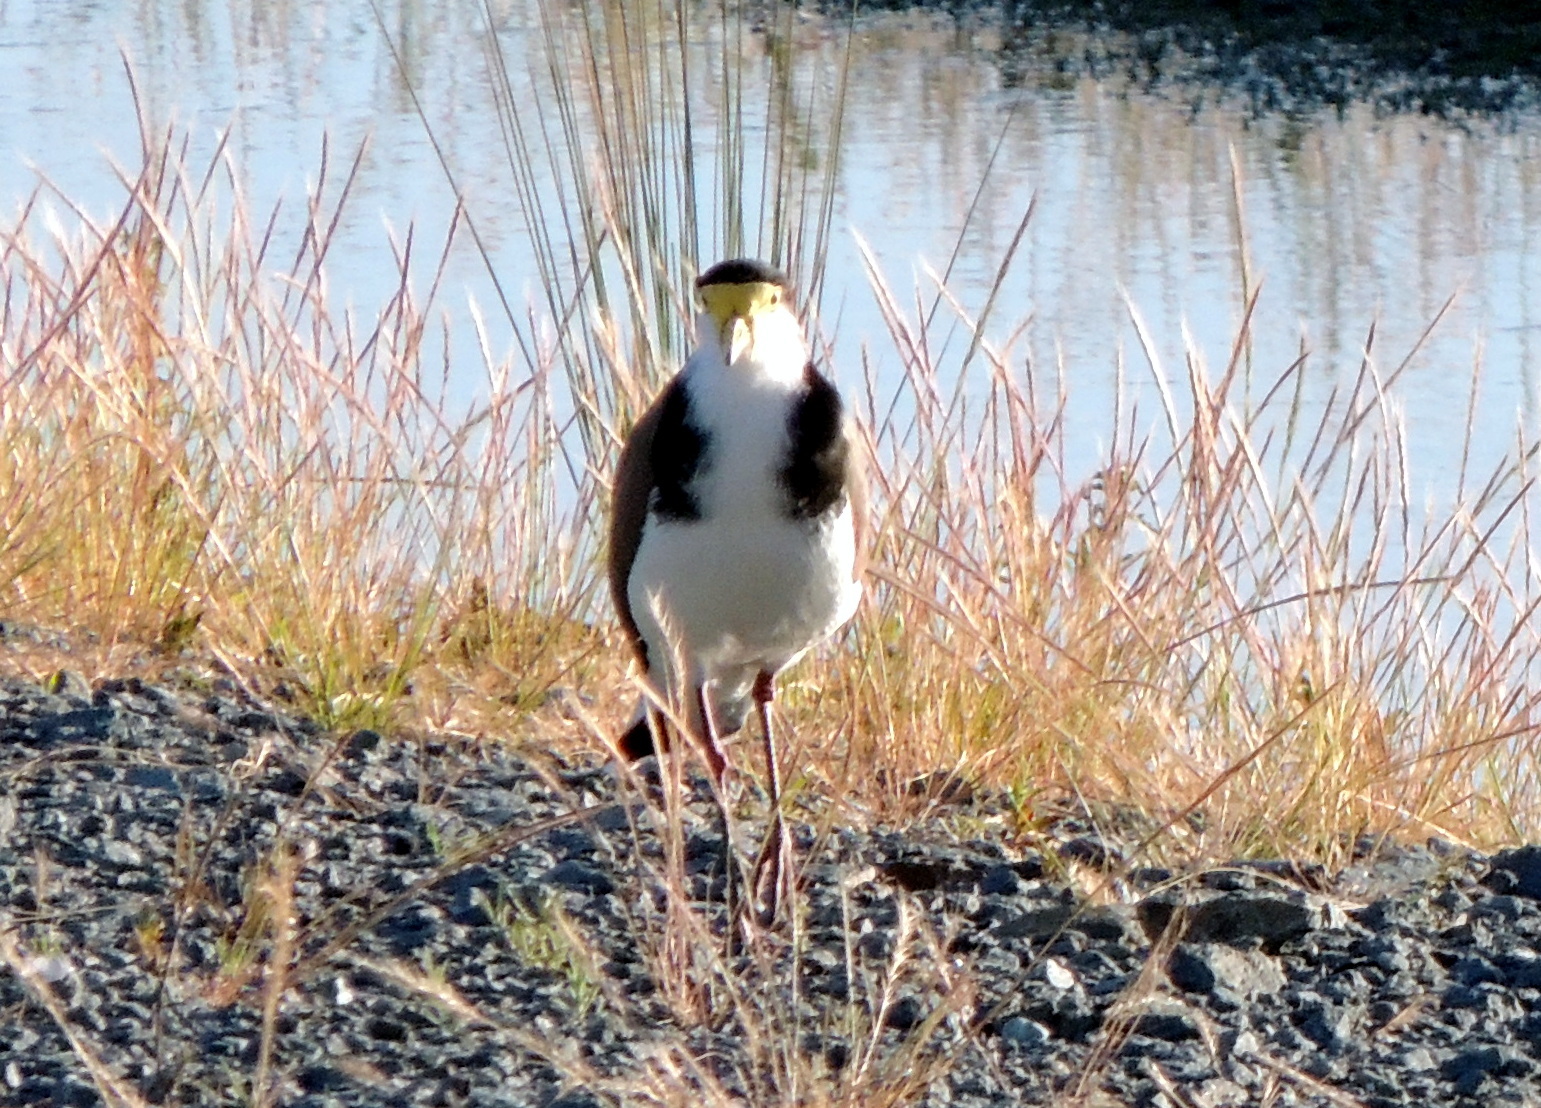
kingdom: Animalia
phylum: Chordata
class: Aves
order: Charadriiformes
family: Charadriidae
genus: Vanellus
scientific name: Vanellus miles
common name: Masked lapwing
